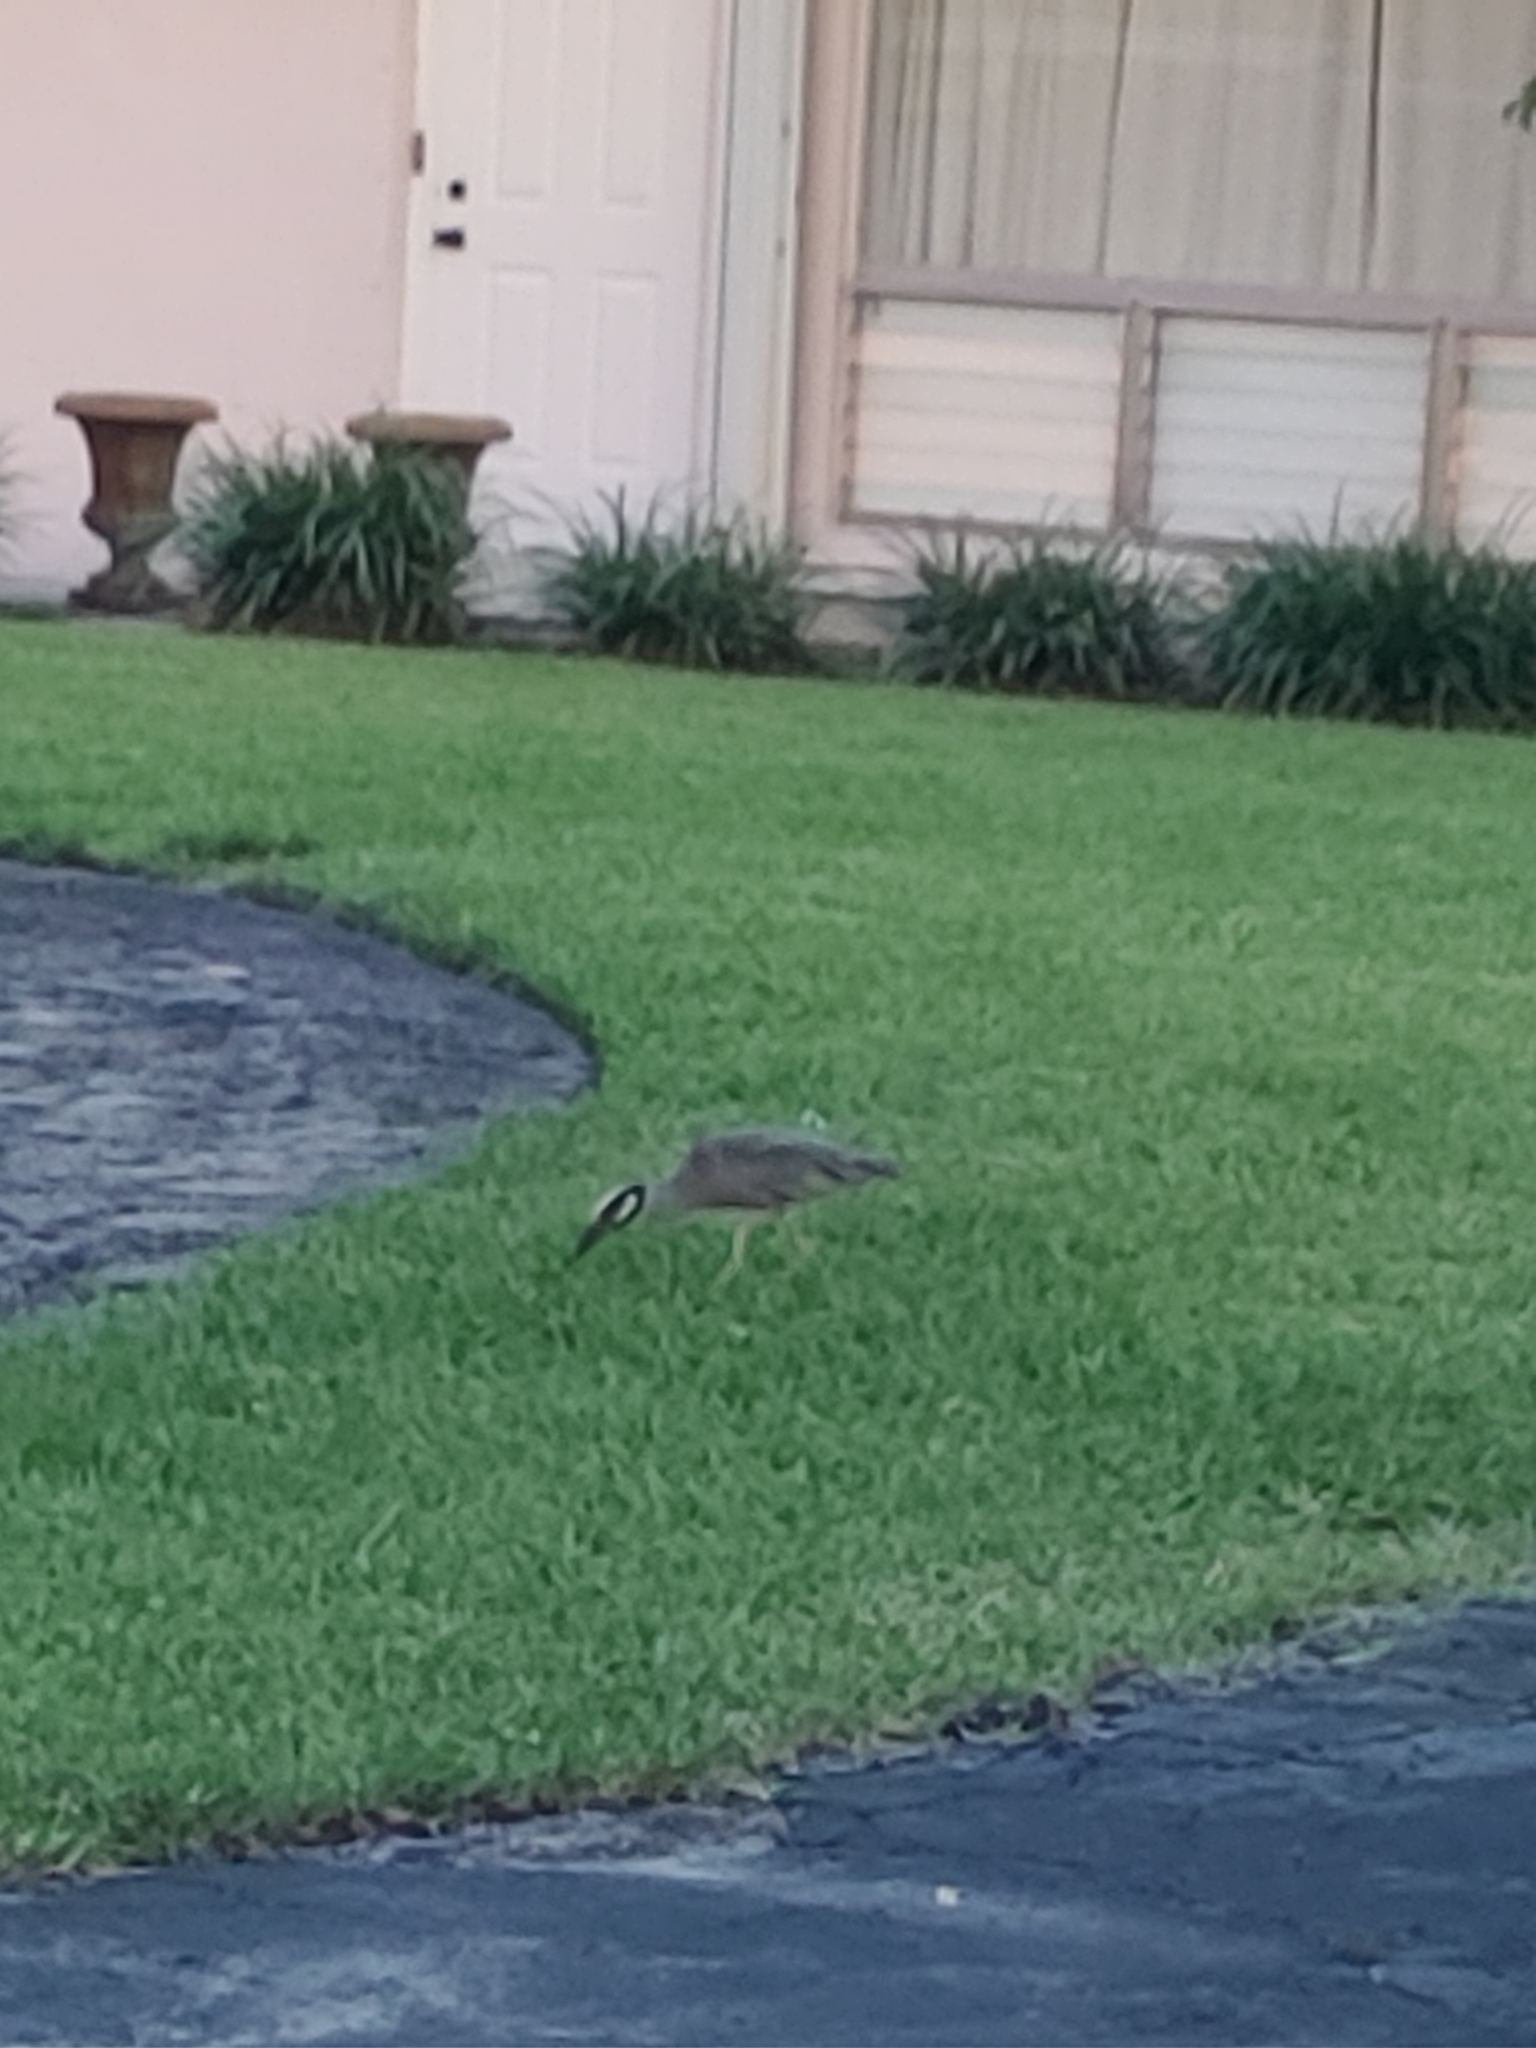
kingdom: Animalia
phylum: Chordata
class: Aves
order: Pelecaniformes
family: Ardeidae
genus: Nyctanassa
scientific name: Nyctanassa violacea
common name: Yellow-crowned night heron
